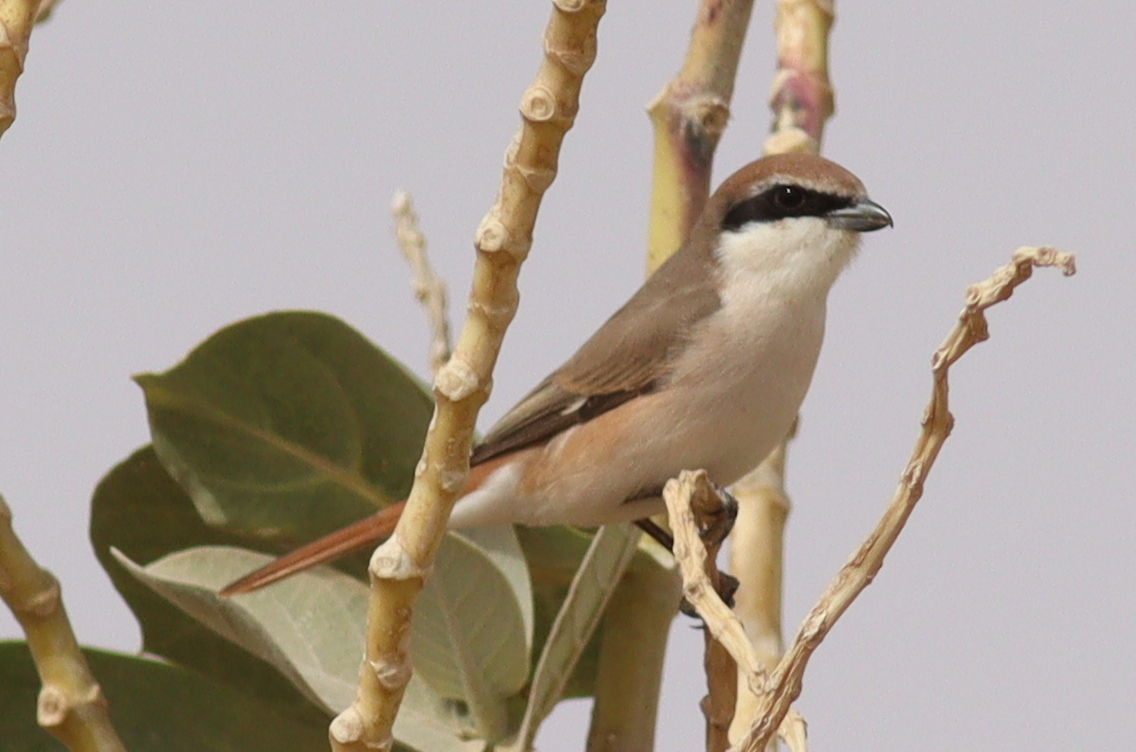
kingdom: Animalia
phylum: Chordata
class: Aves
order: Passeriformes
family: Laniidae
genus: Lanius
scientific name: Lanius phoenicuroides
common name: Red-tailed shrike
